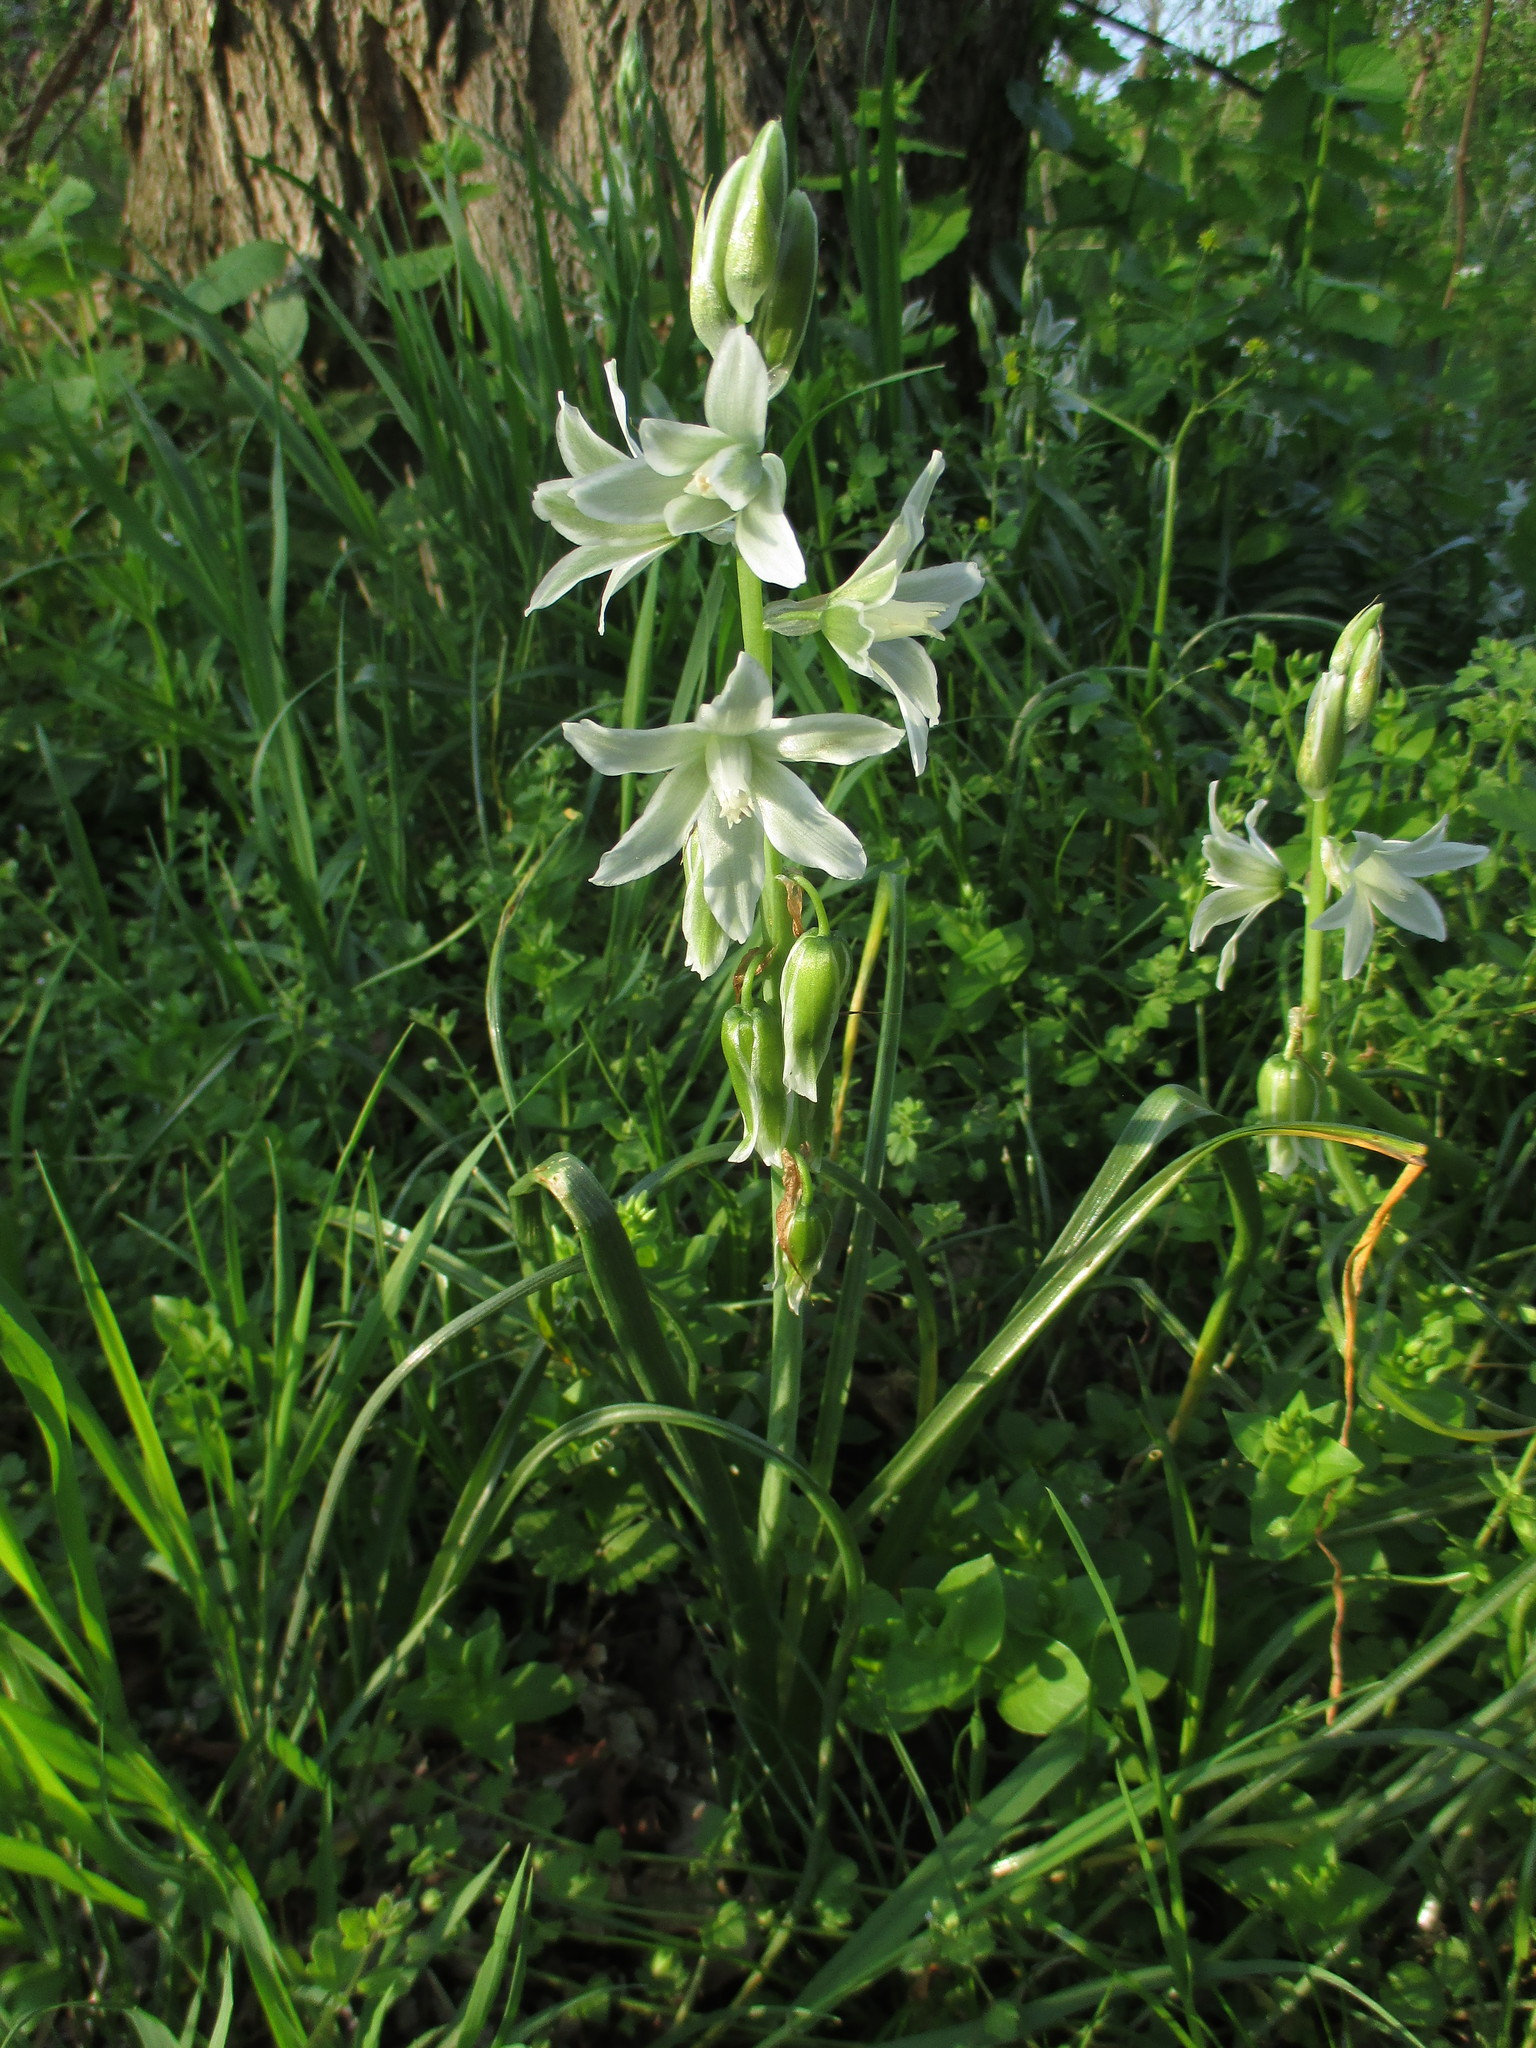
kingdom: Plantae
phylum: Tracheophyta
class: Liliopsida
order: Asparagales
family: Asparagaceae
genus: Ornithogalum
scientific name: Ornithogalum nutans
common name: Drooping star-of-bethlehem
